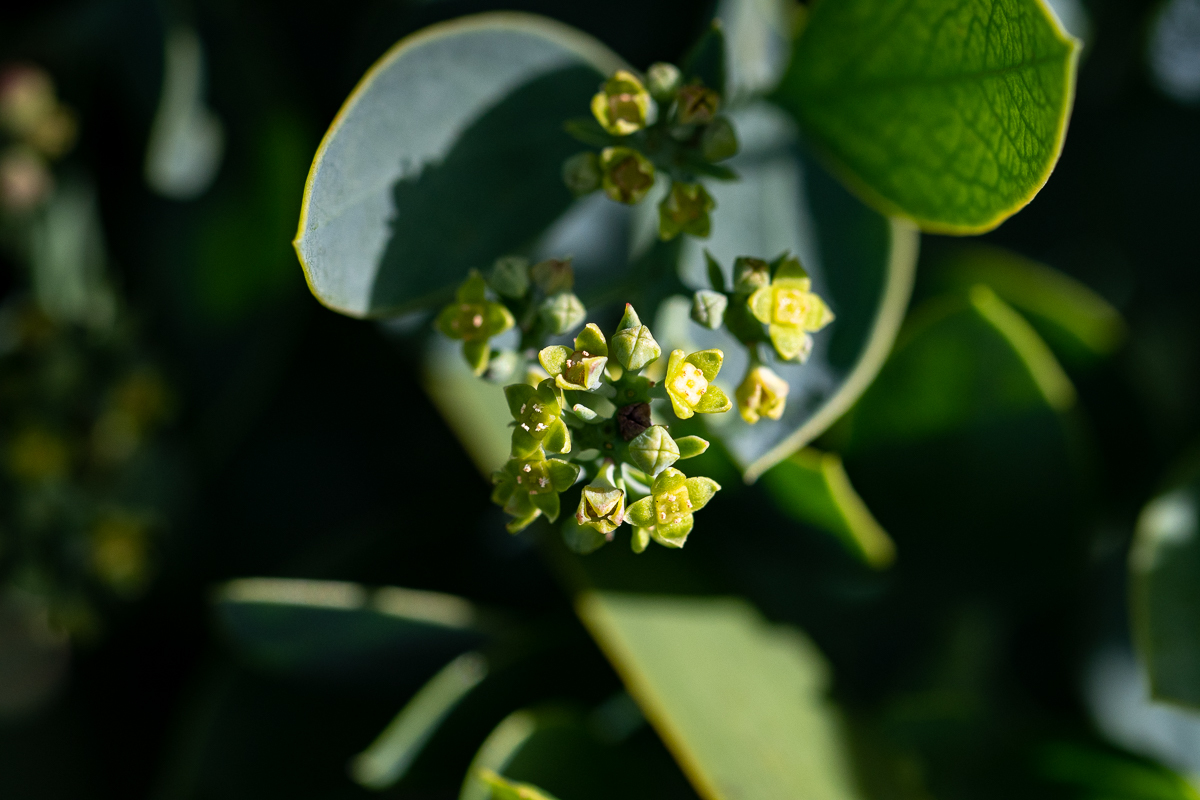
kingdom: Plantae
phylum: Tracheophyta
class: Magnoliopsida
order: Santalales
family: Santalaceae
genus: Osyris
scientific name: Osyris compressa
